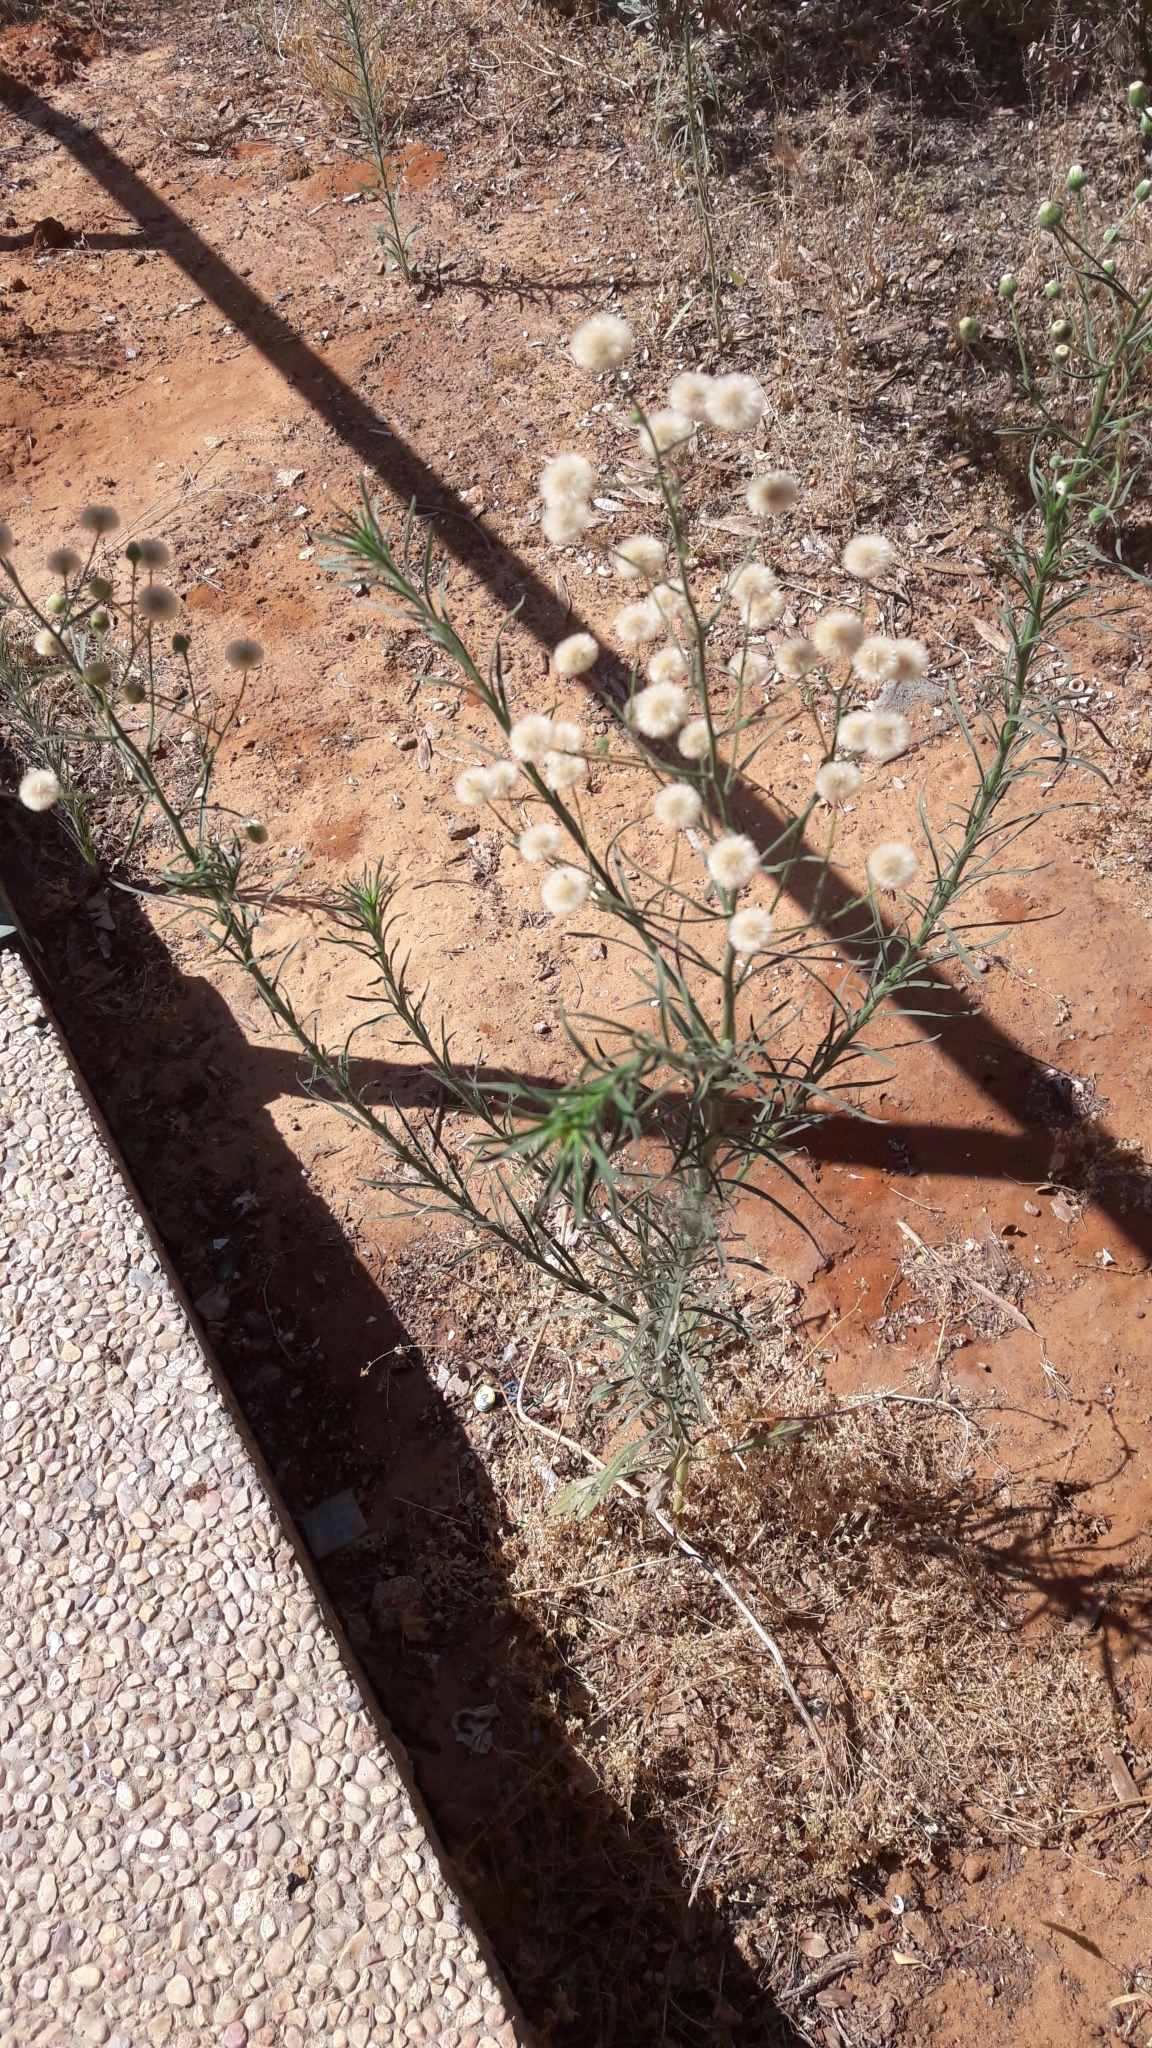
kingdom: Plantae
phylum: Tracheophyta
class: Magnoliopsida
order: Asterales
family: Asteraceae
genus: Erigeron
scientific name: Erigeron bonariensis
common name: Argentine fleabane
